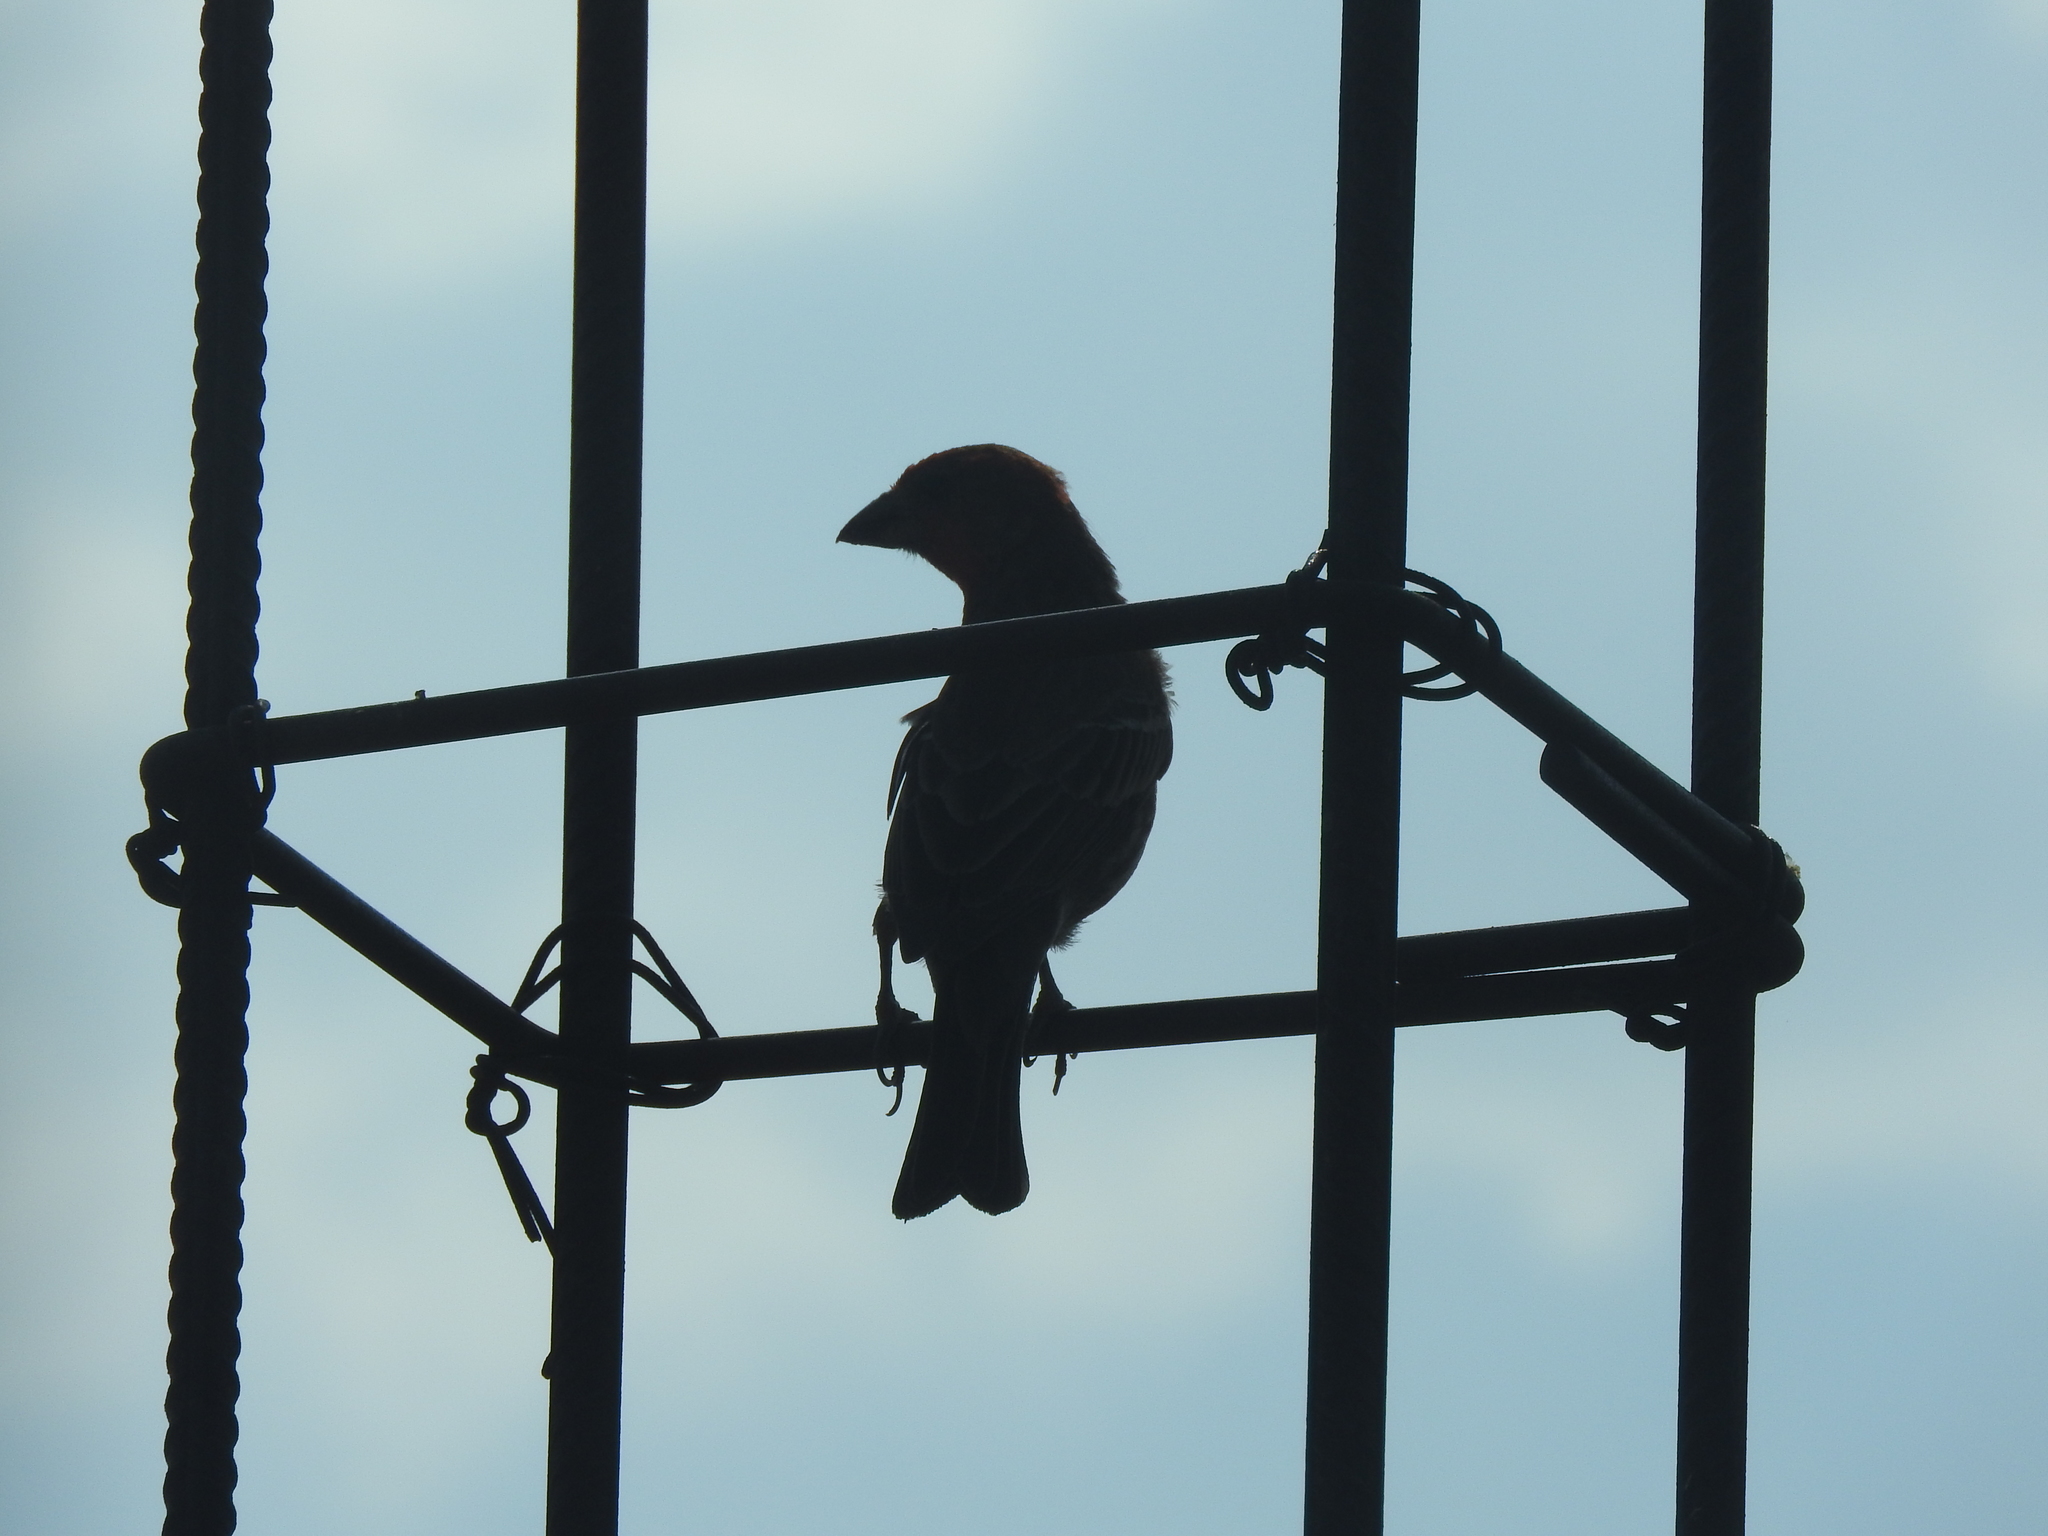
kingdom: Animalia
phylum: Chordata
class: Aves
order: Passeriformes
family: Fringillidae
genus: Haemorhous
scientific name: Haemorhous mexicanus
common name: House finch
